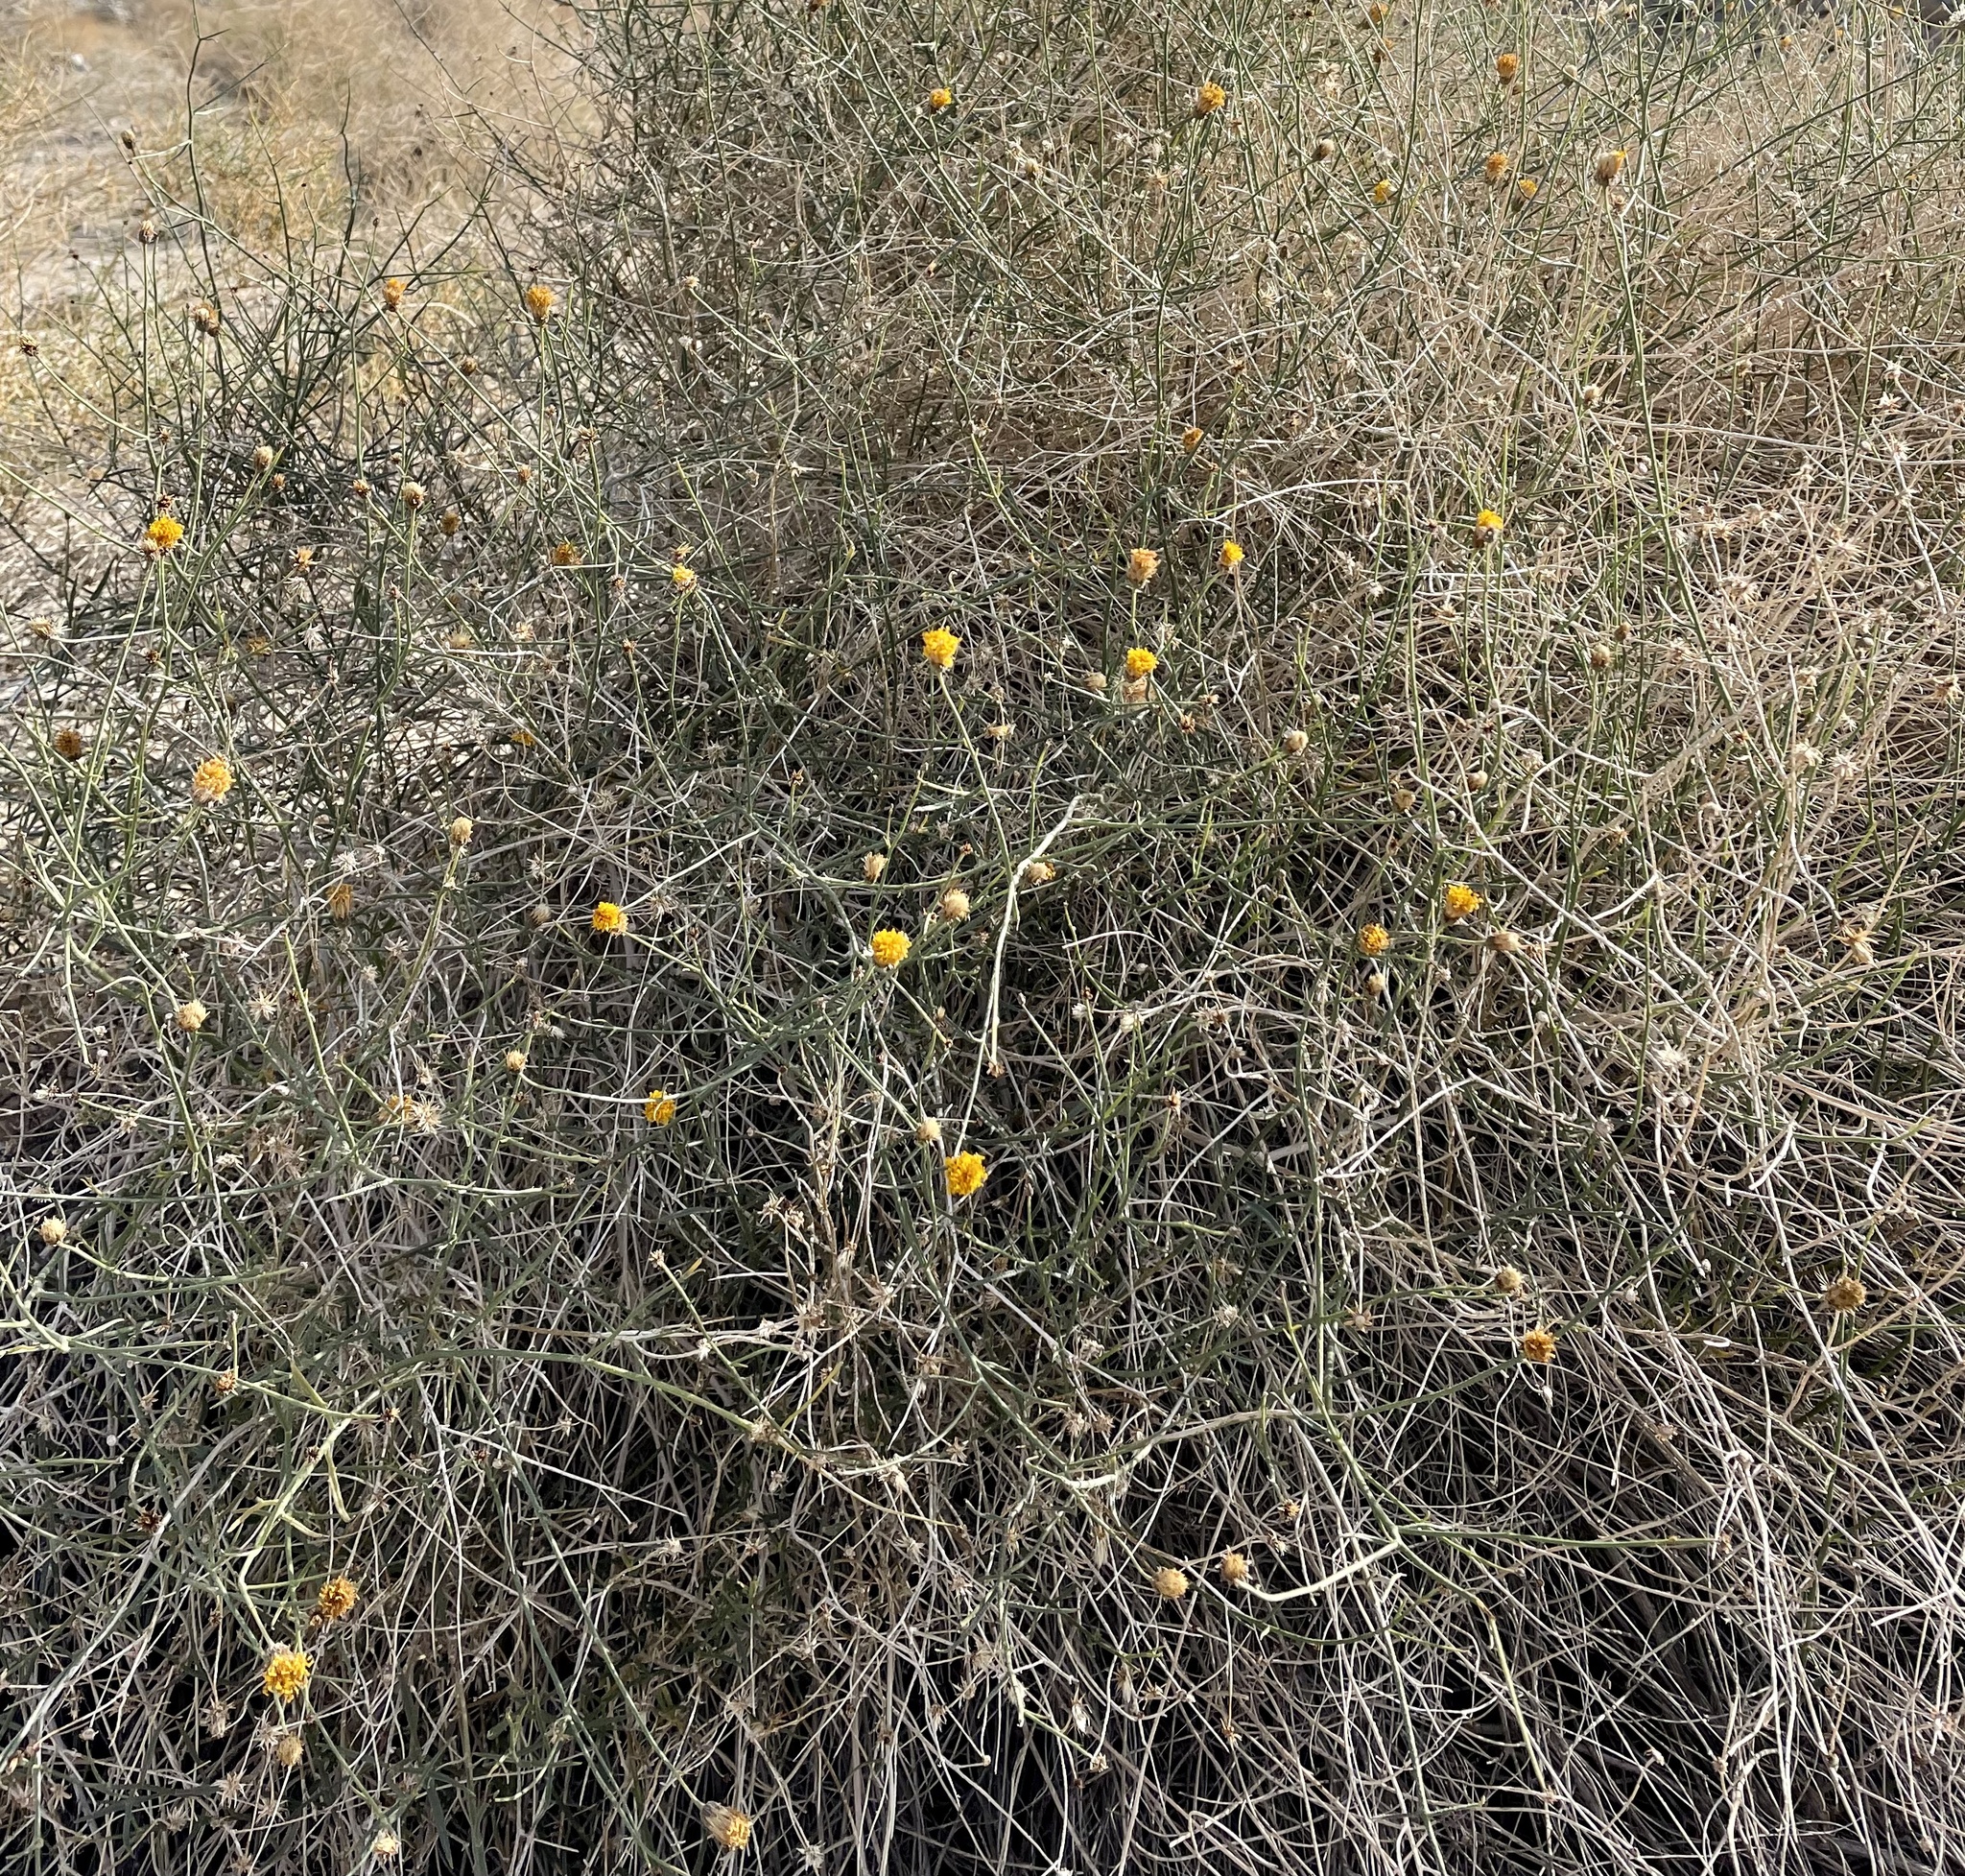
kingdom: Plantae
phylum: Tracheophyta
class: Magnoliopsida
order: Asterales
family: Asteraceae
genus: Bebbia
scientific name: Bebbia juncea
